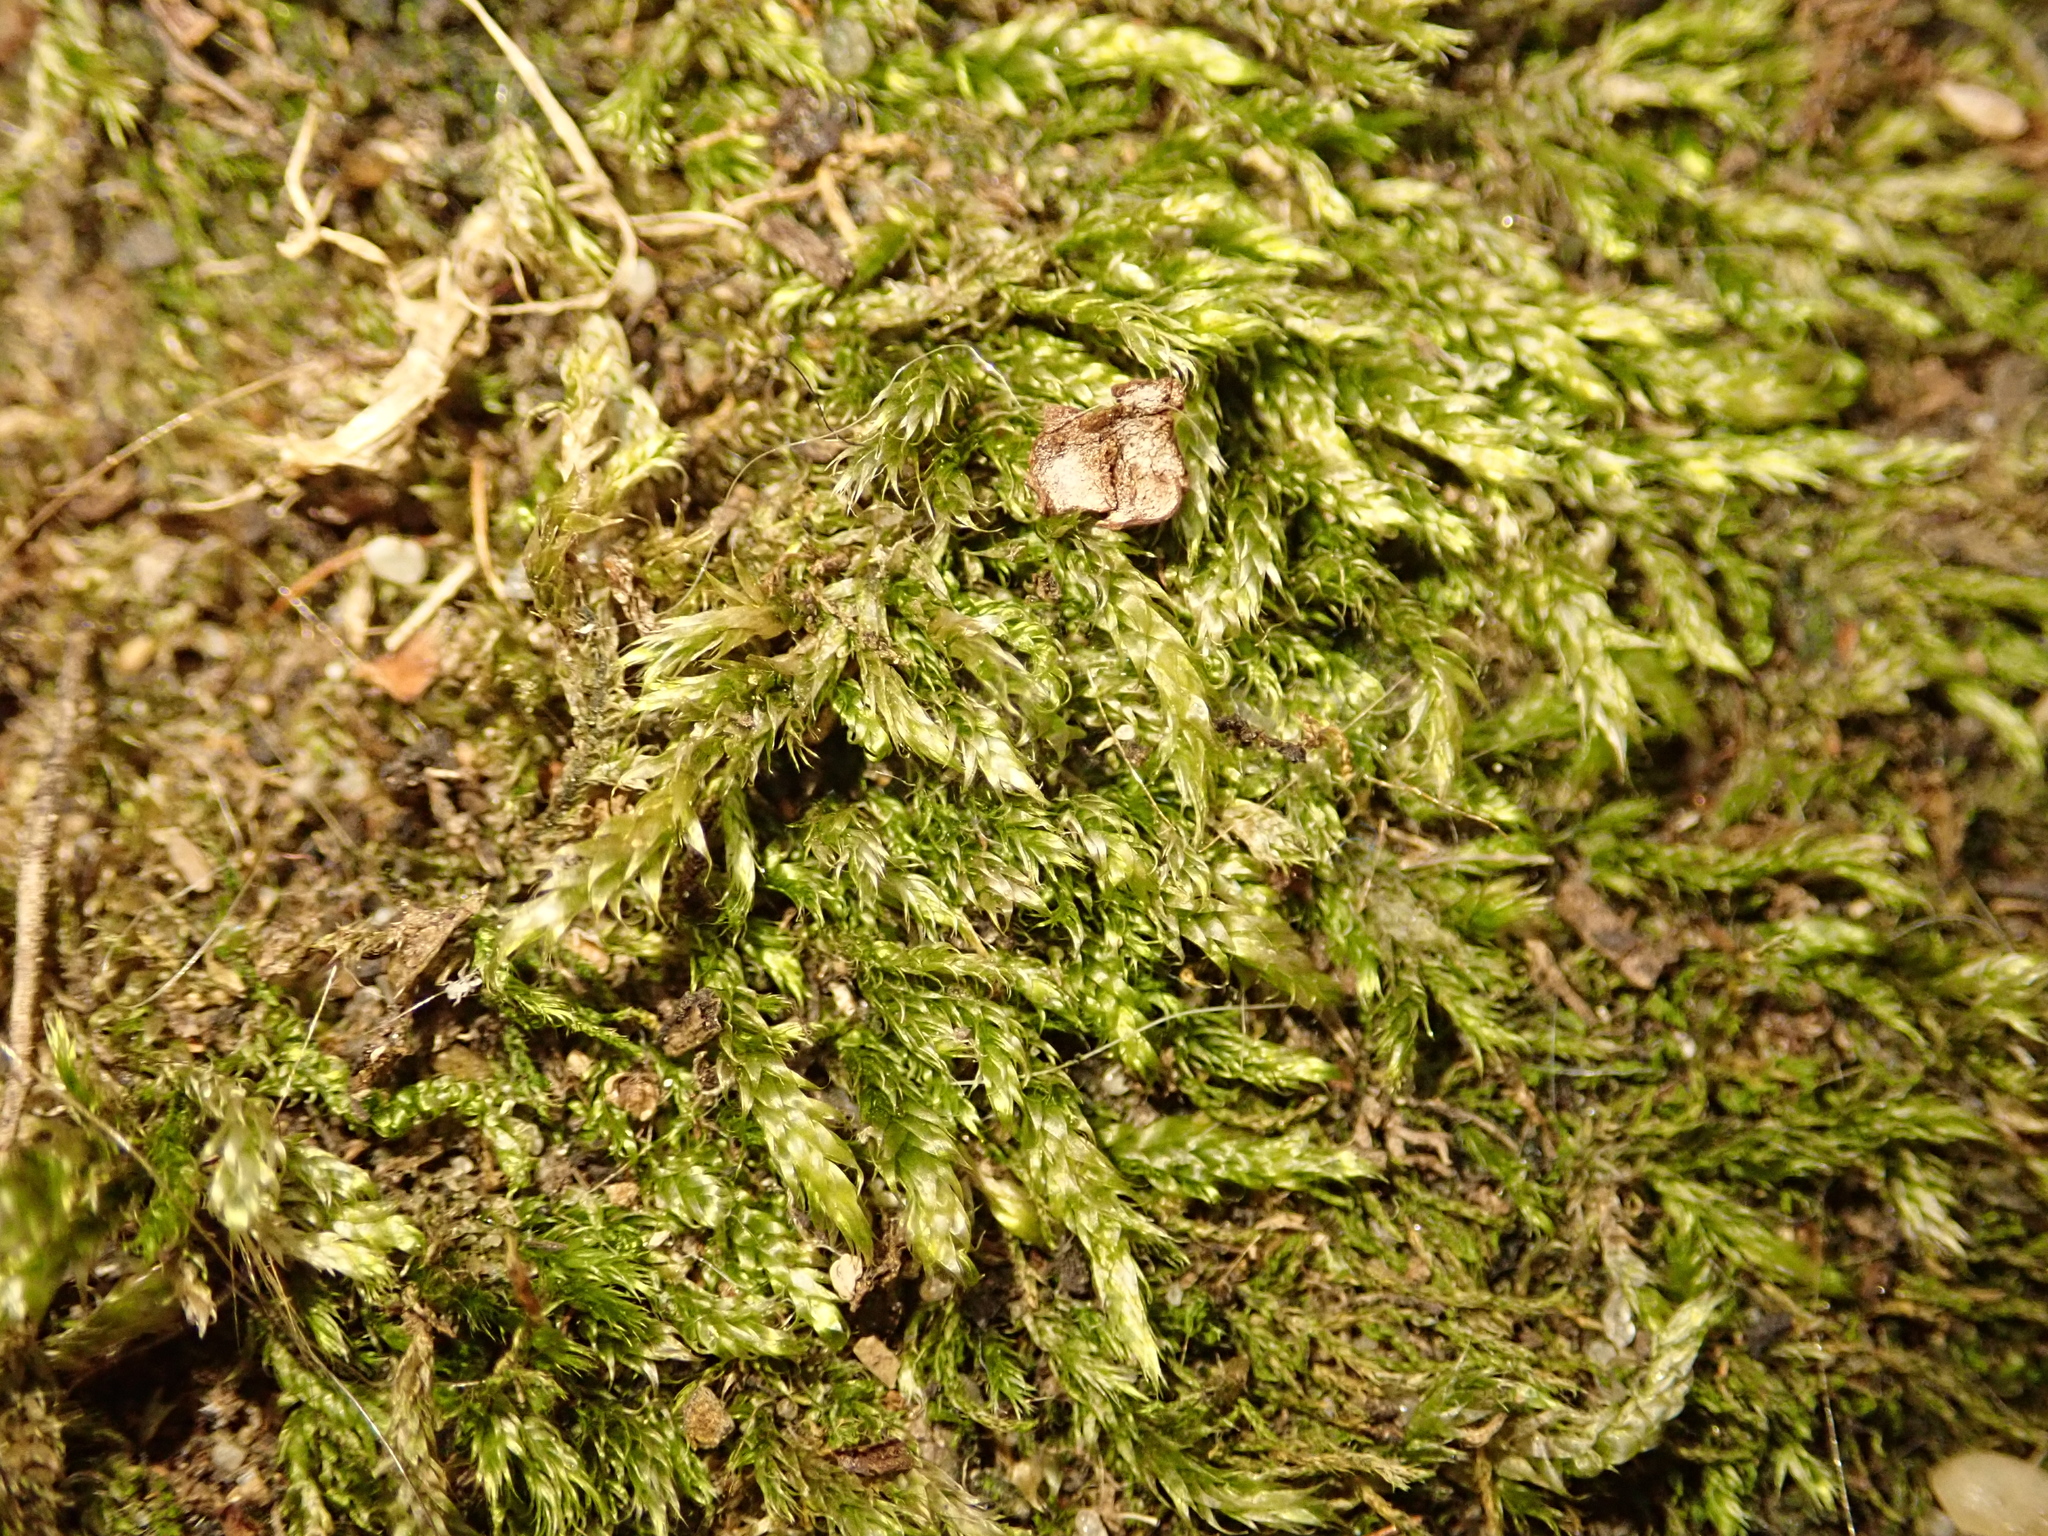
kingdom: Plantae
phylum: Bryophyta
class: Bryopsida
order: Hypnales
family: Hypnaceae
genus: Hypnum
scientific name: Hypnum cupressiforme
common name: Cypress-leaved plait-moss
